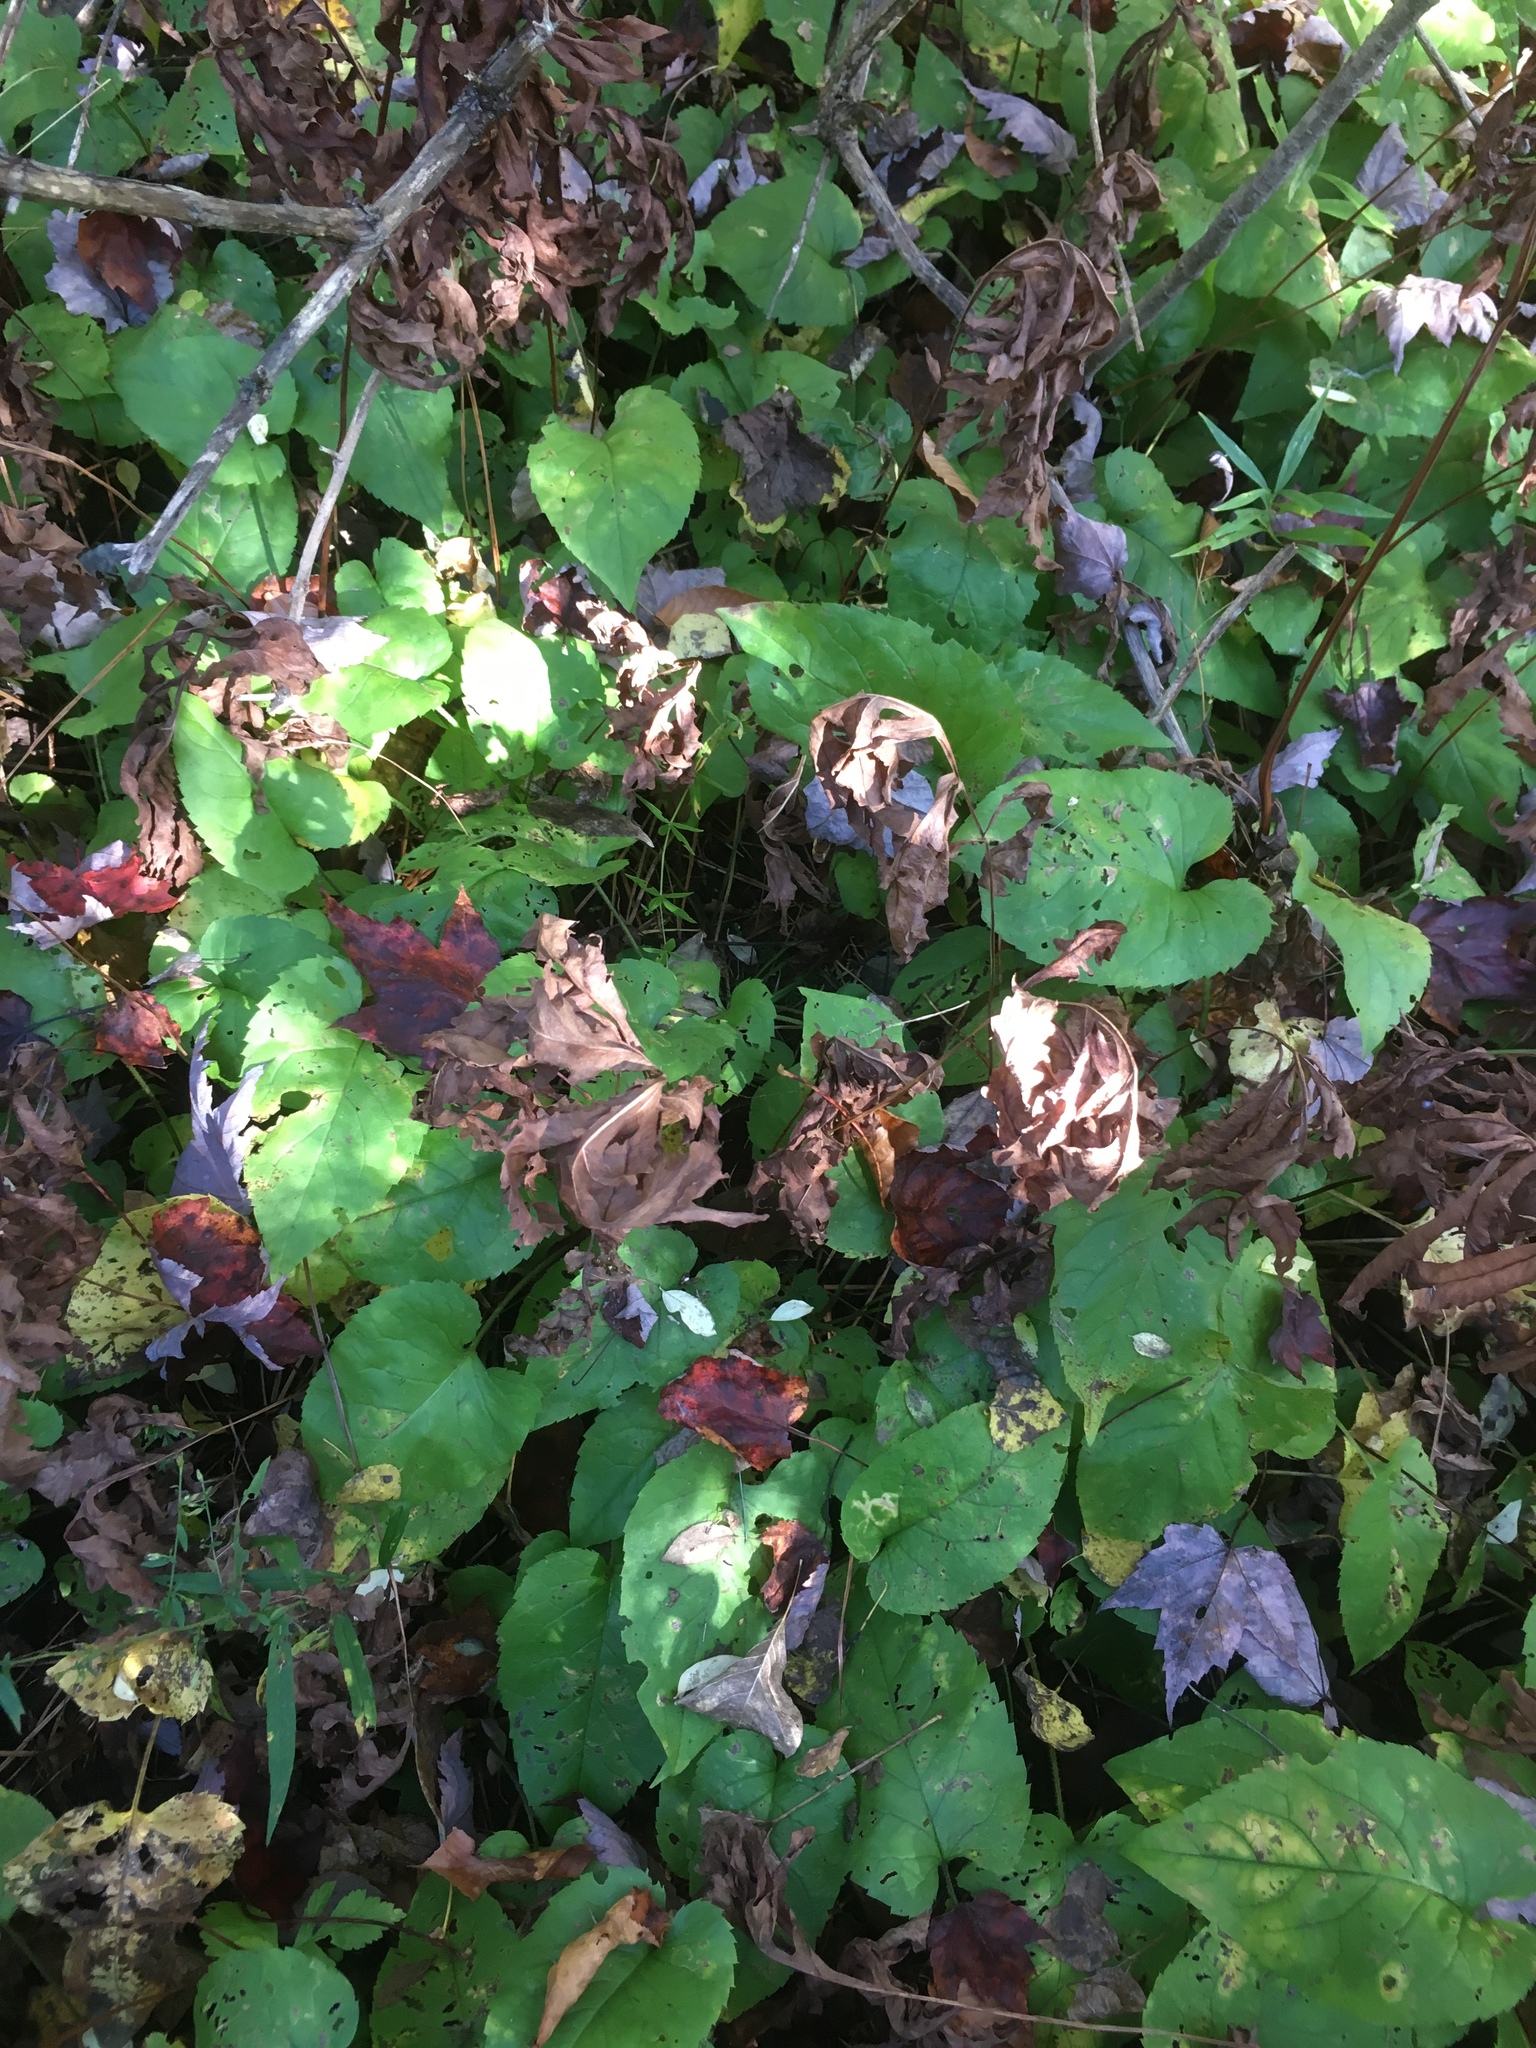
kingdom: Plantae
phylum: Tracheophyta
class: Magnoliopsida
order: Asterales
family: Asteraceae
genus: Eurybia
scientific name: Eurybia macrophylla
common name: Big-leaved aster
